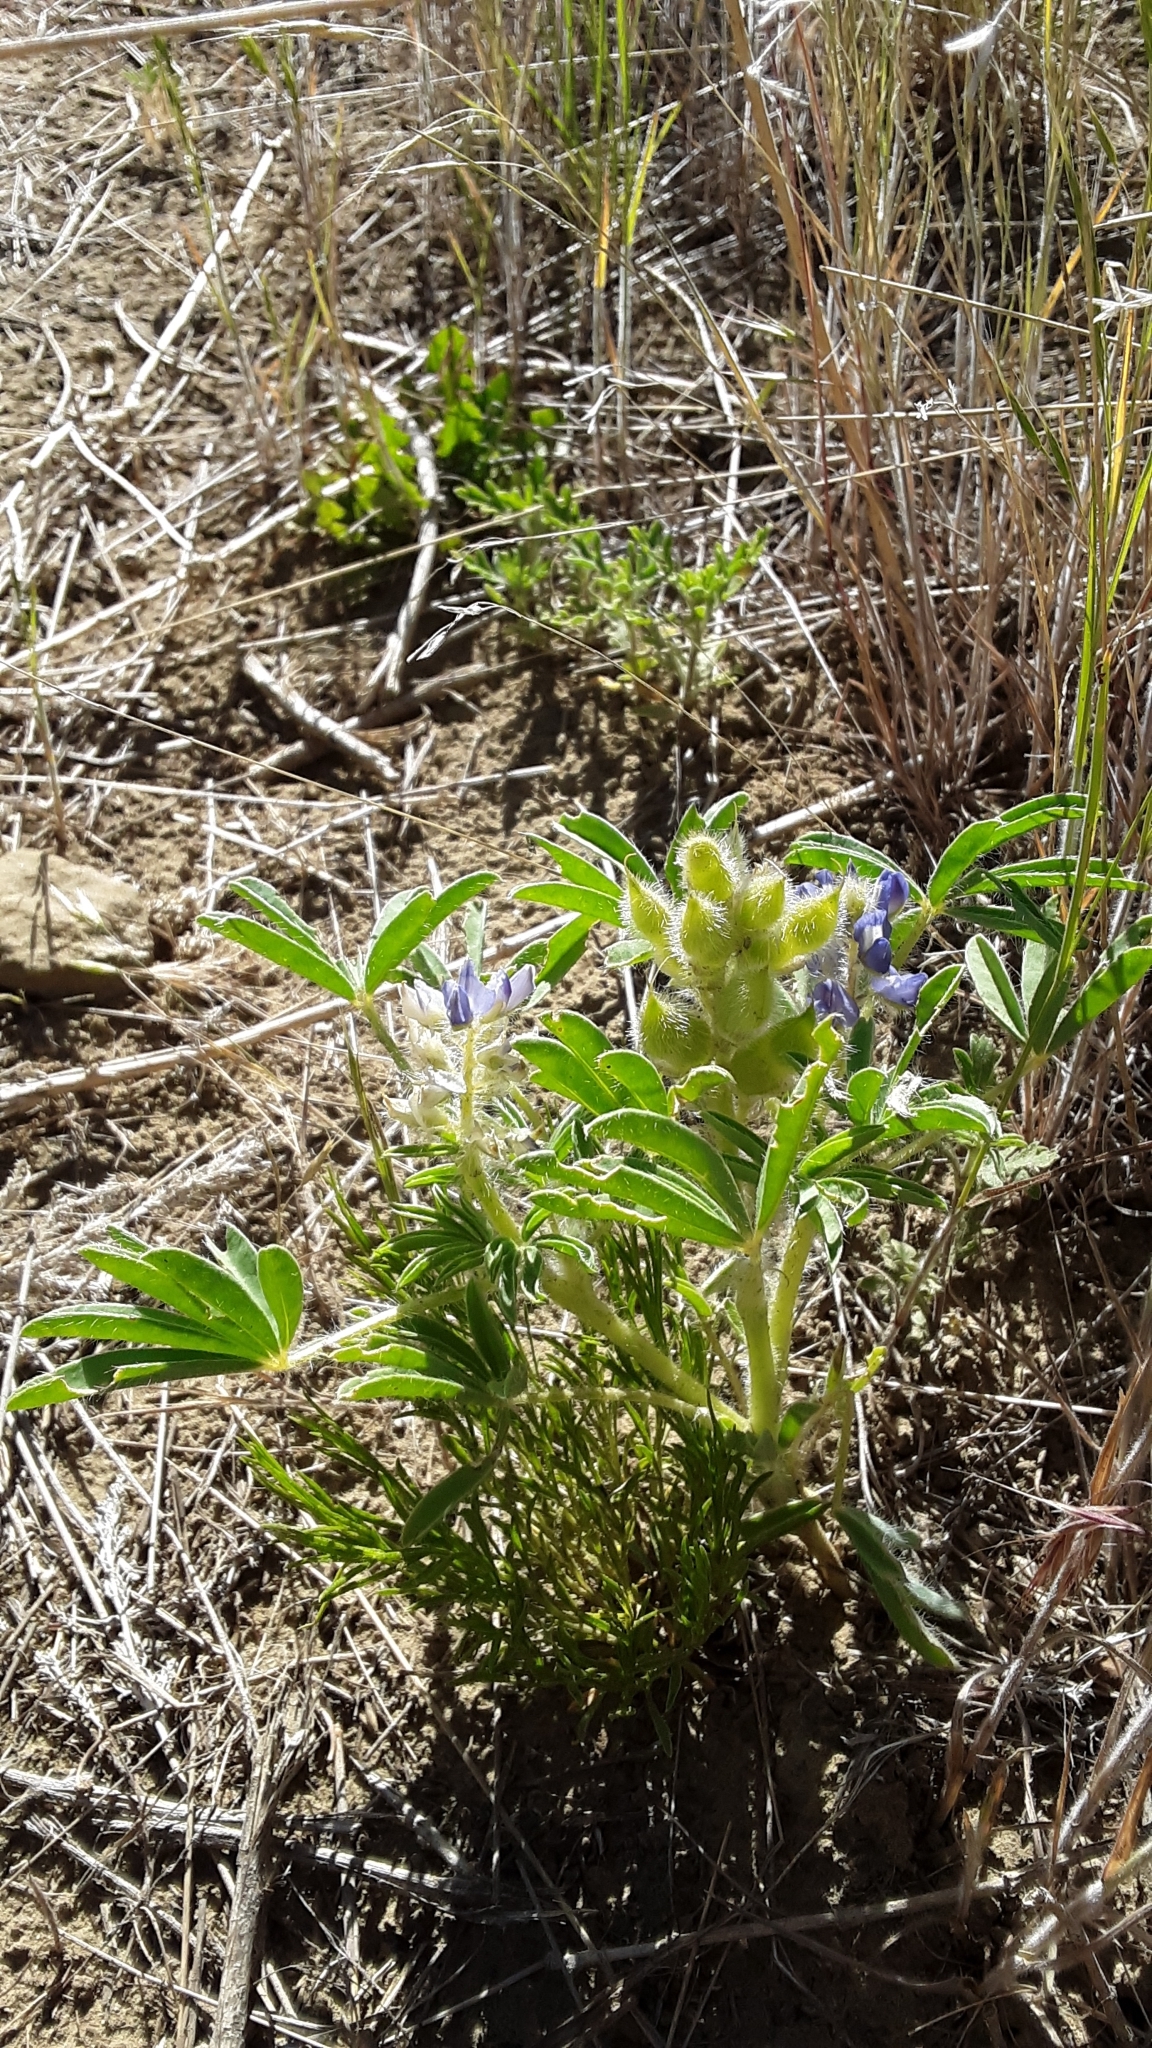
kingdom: Plantae
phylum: Tracheophyta
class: Magnoliopsida
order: Fabales
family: Fabaceae
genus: Pediomelum
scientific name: Pediomelum esculentum
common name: Indian-turnip
